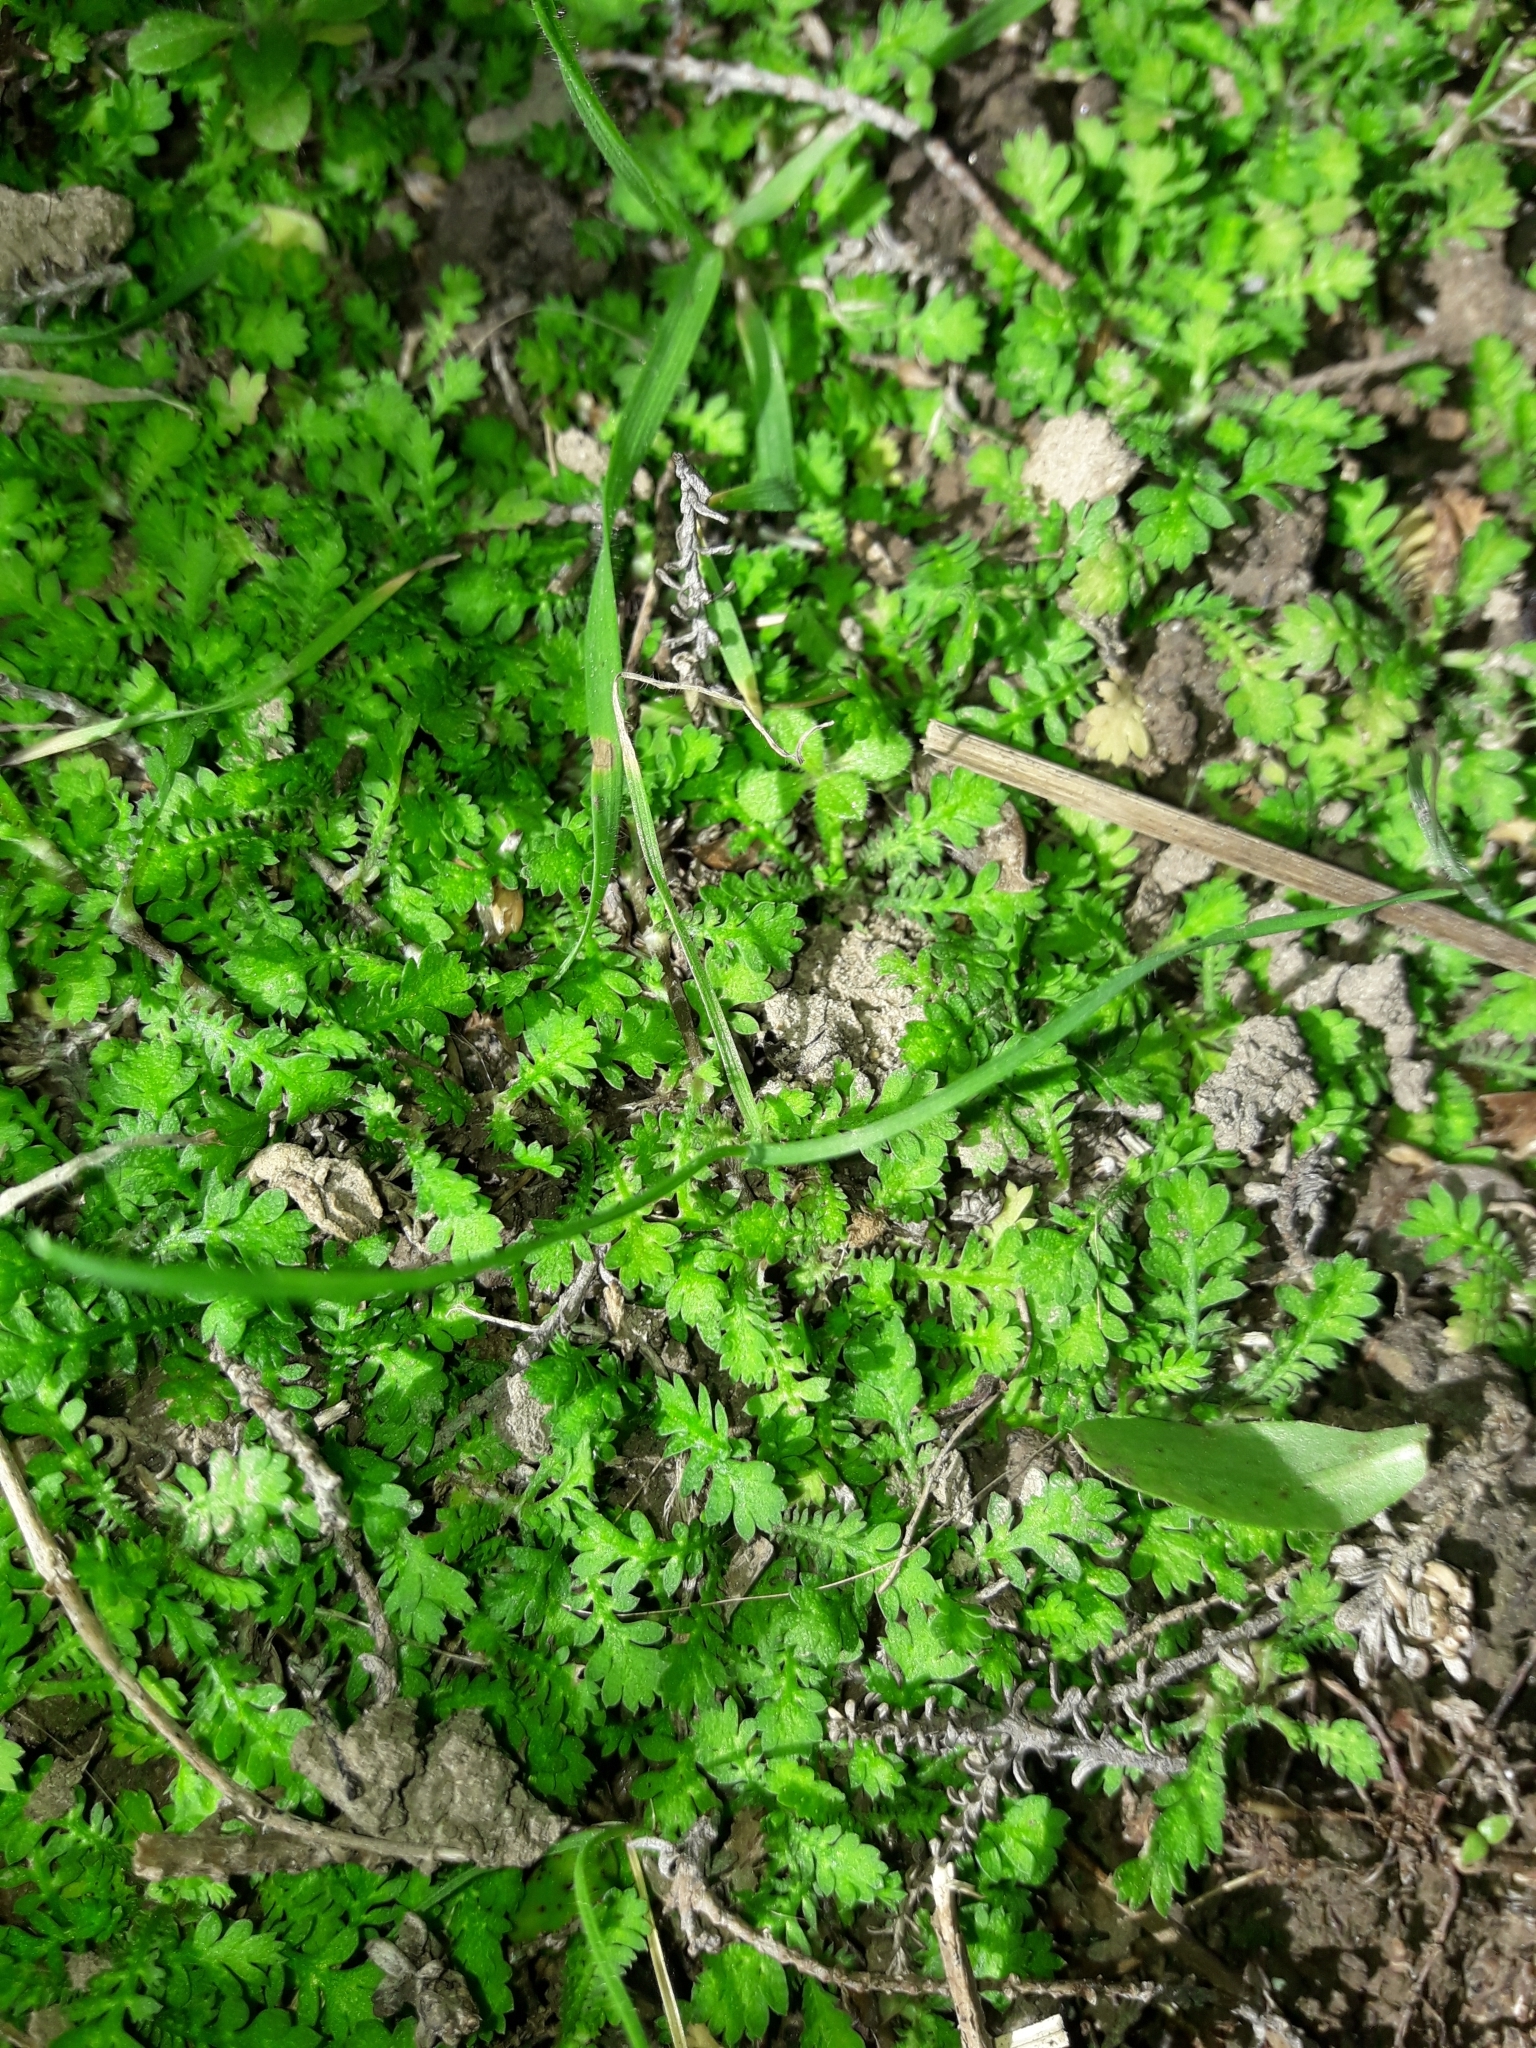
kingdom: Plantae
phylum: Tracheophyta
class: Magnoliopsida
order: Asterales
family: Asteraceae
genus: Leptinella
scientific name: Leptinella nana
